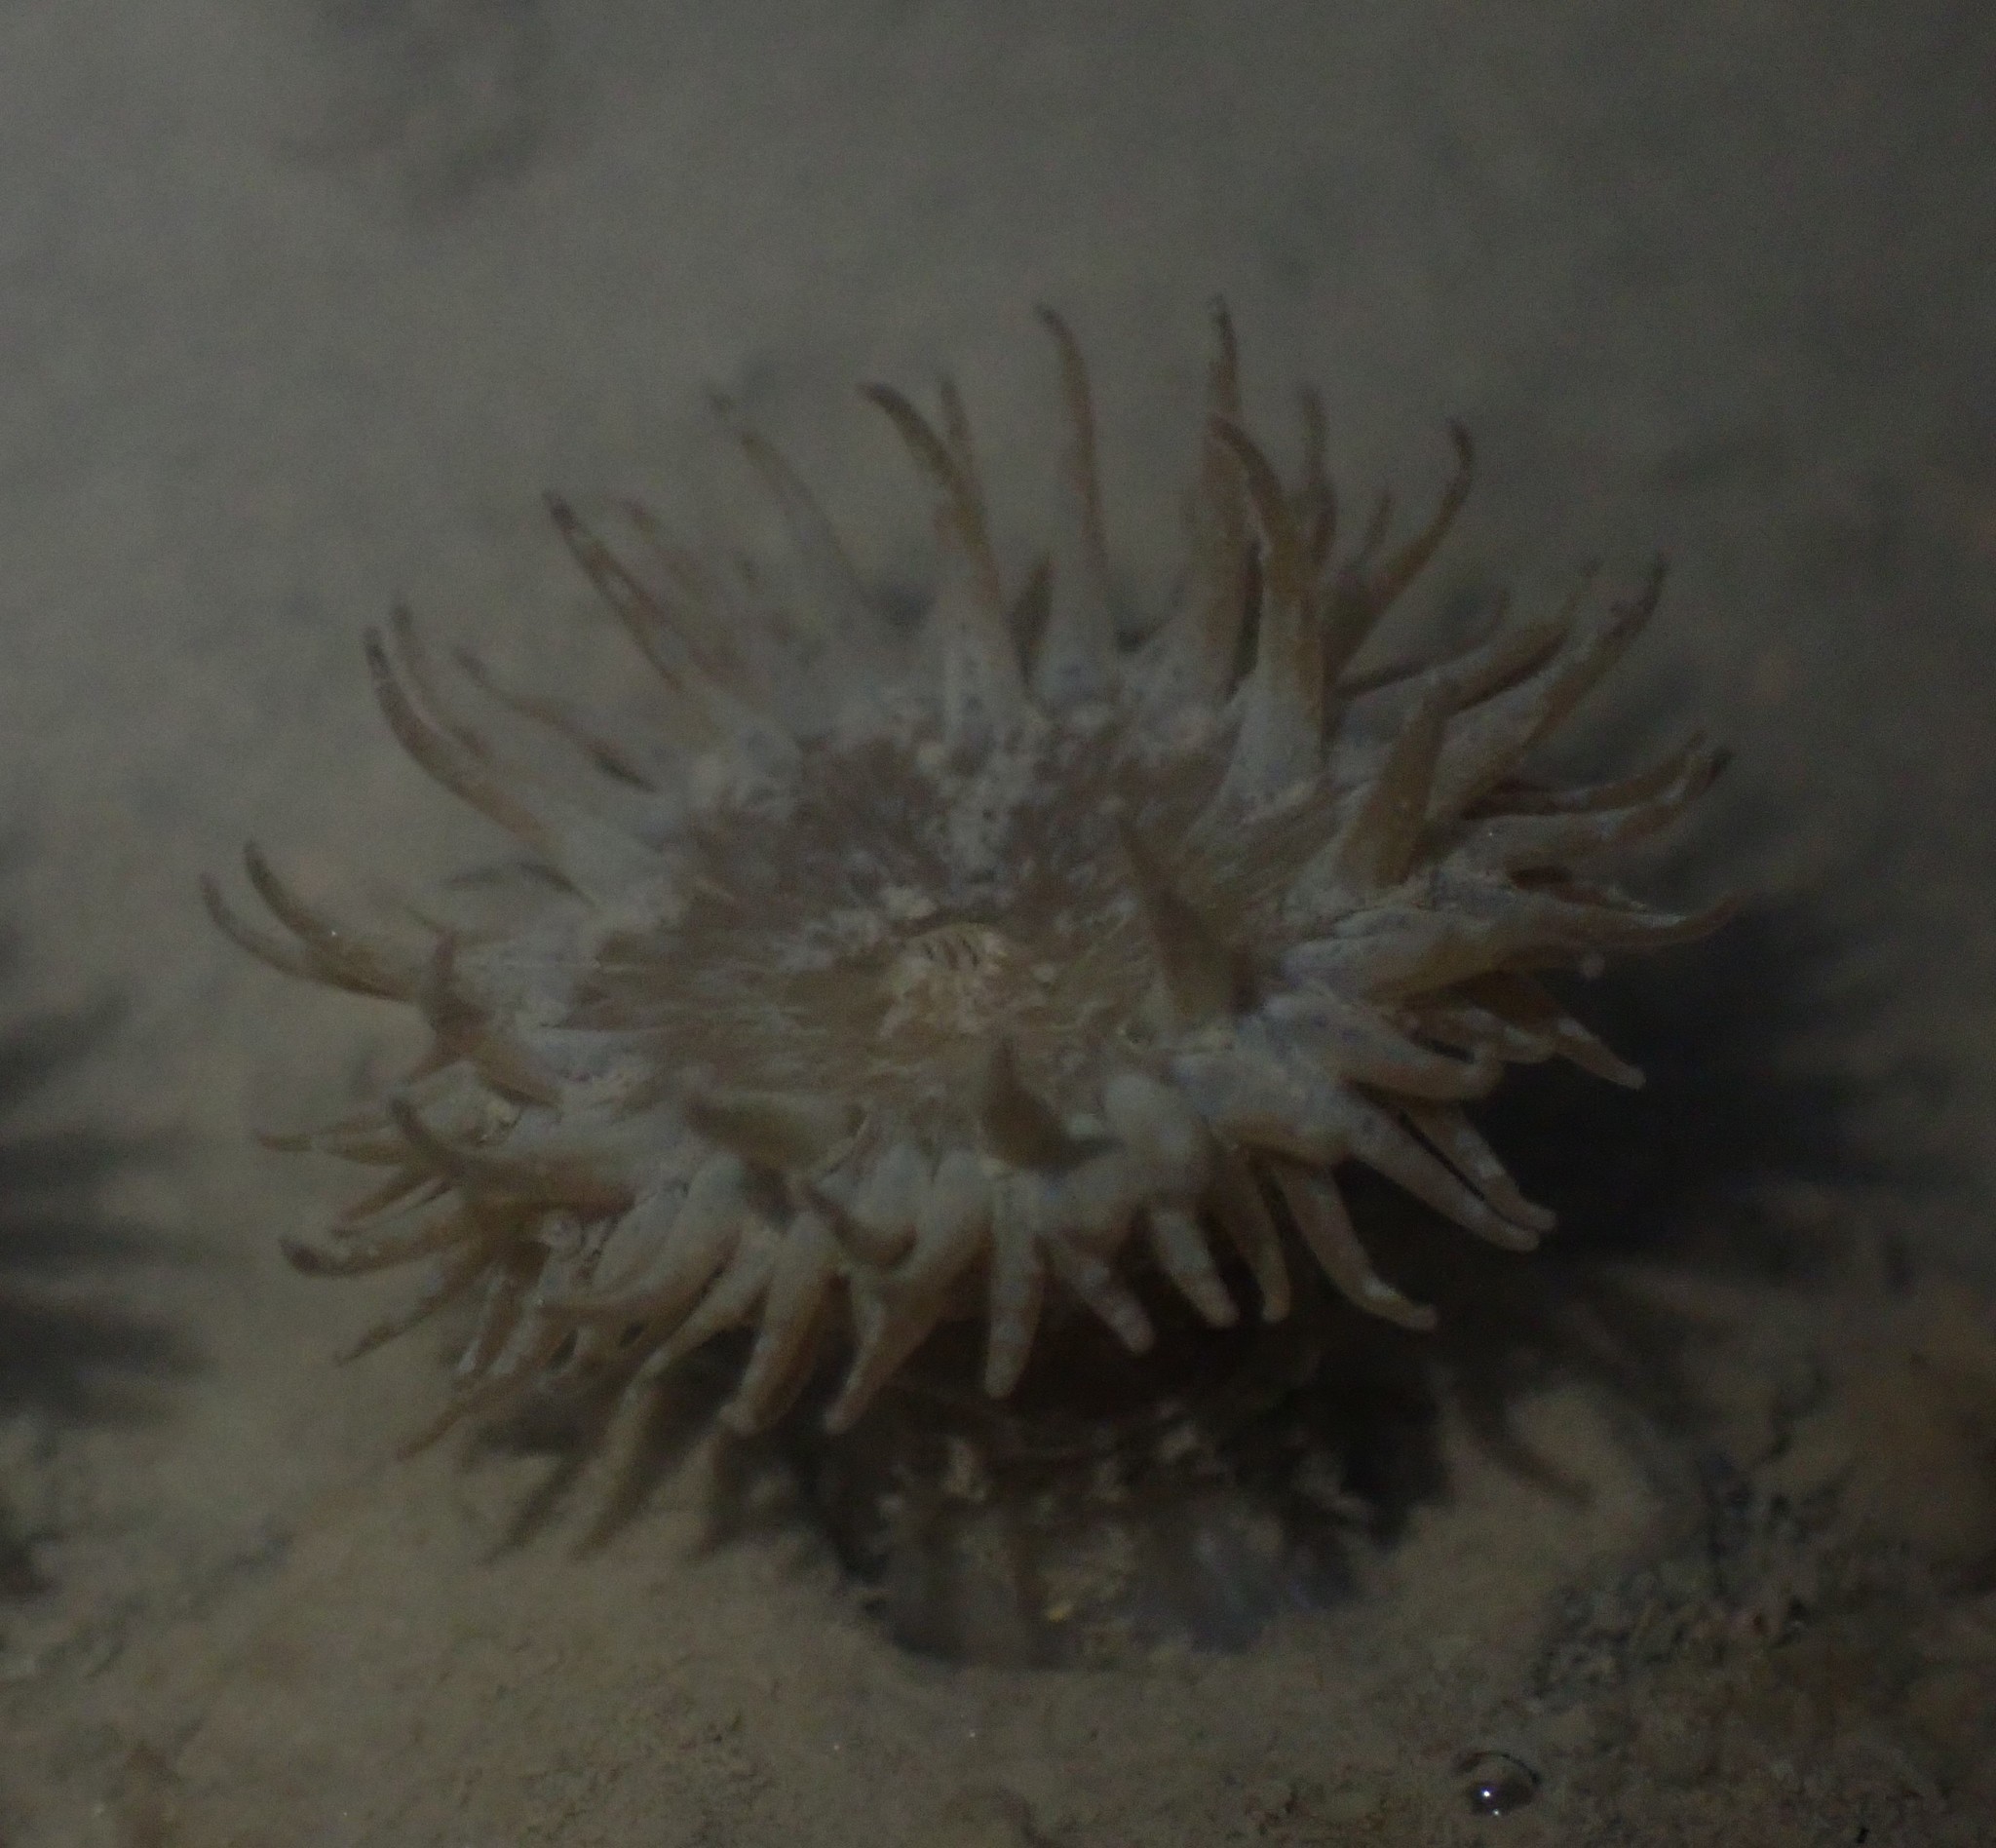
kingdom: Animalia
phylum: Cnidaria
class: Anthozoa
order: Actiniaria
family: Actiniidae
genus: Anthopleura
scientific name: Anthopleura hermaphroditica
